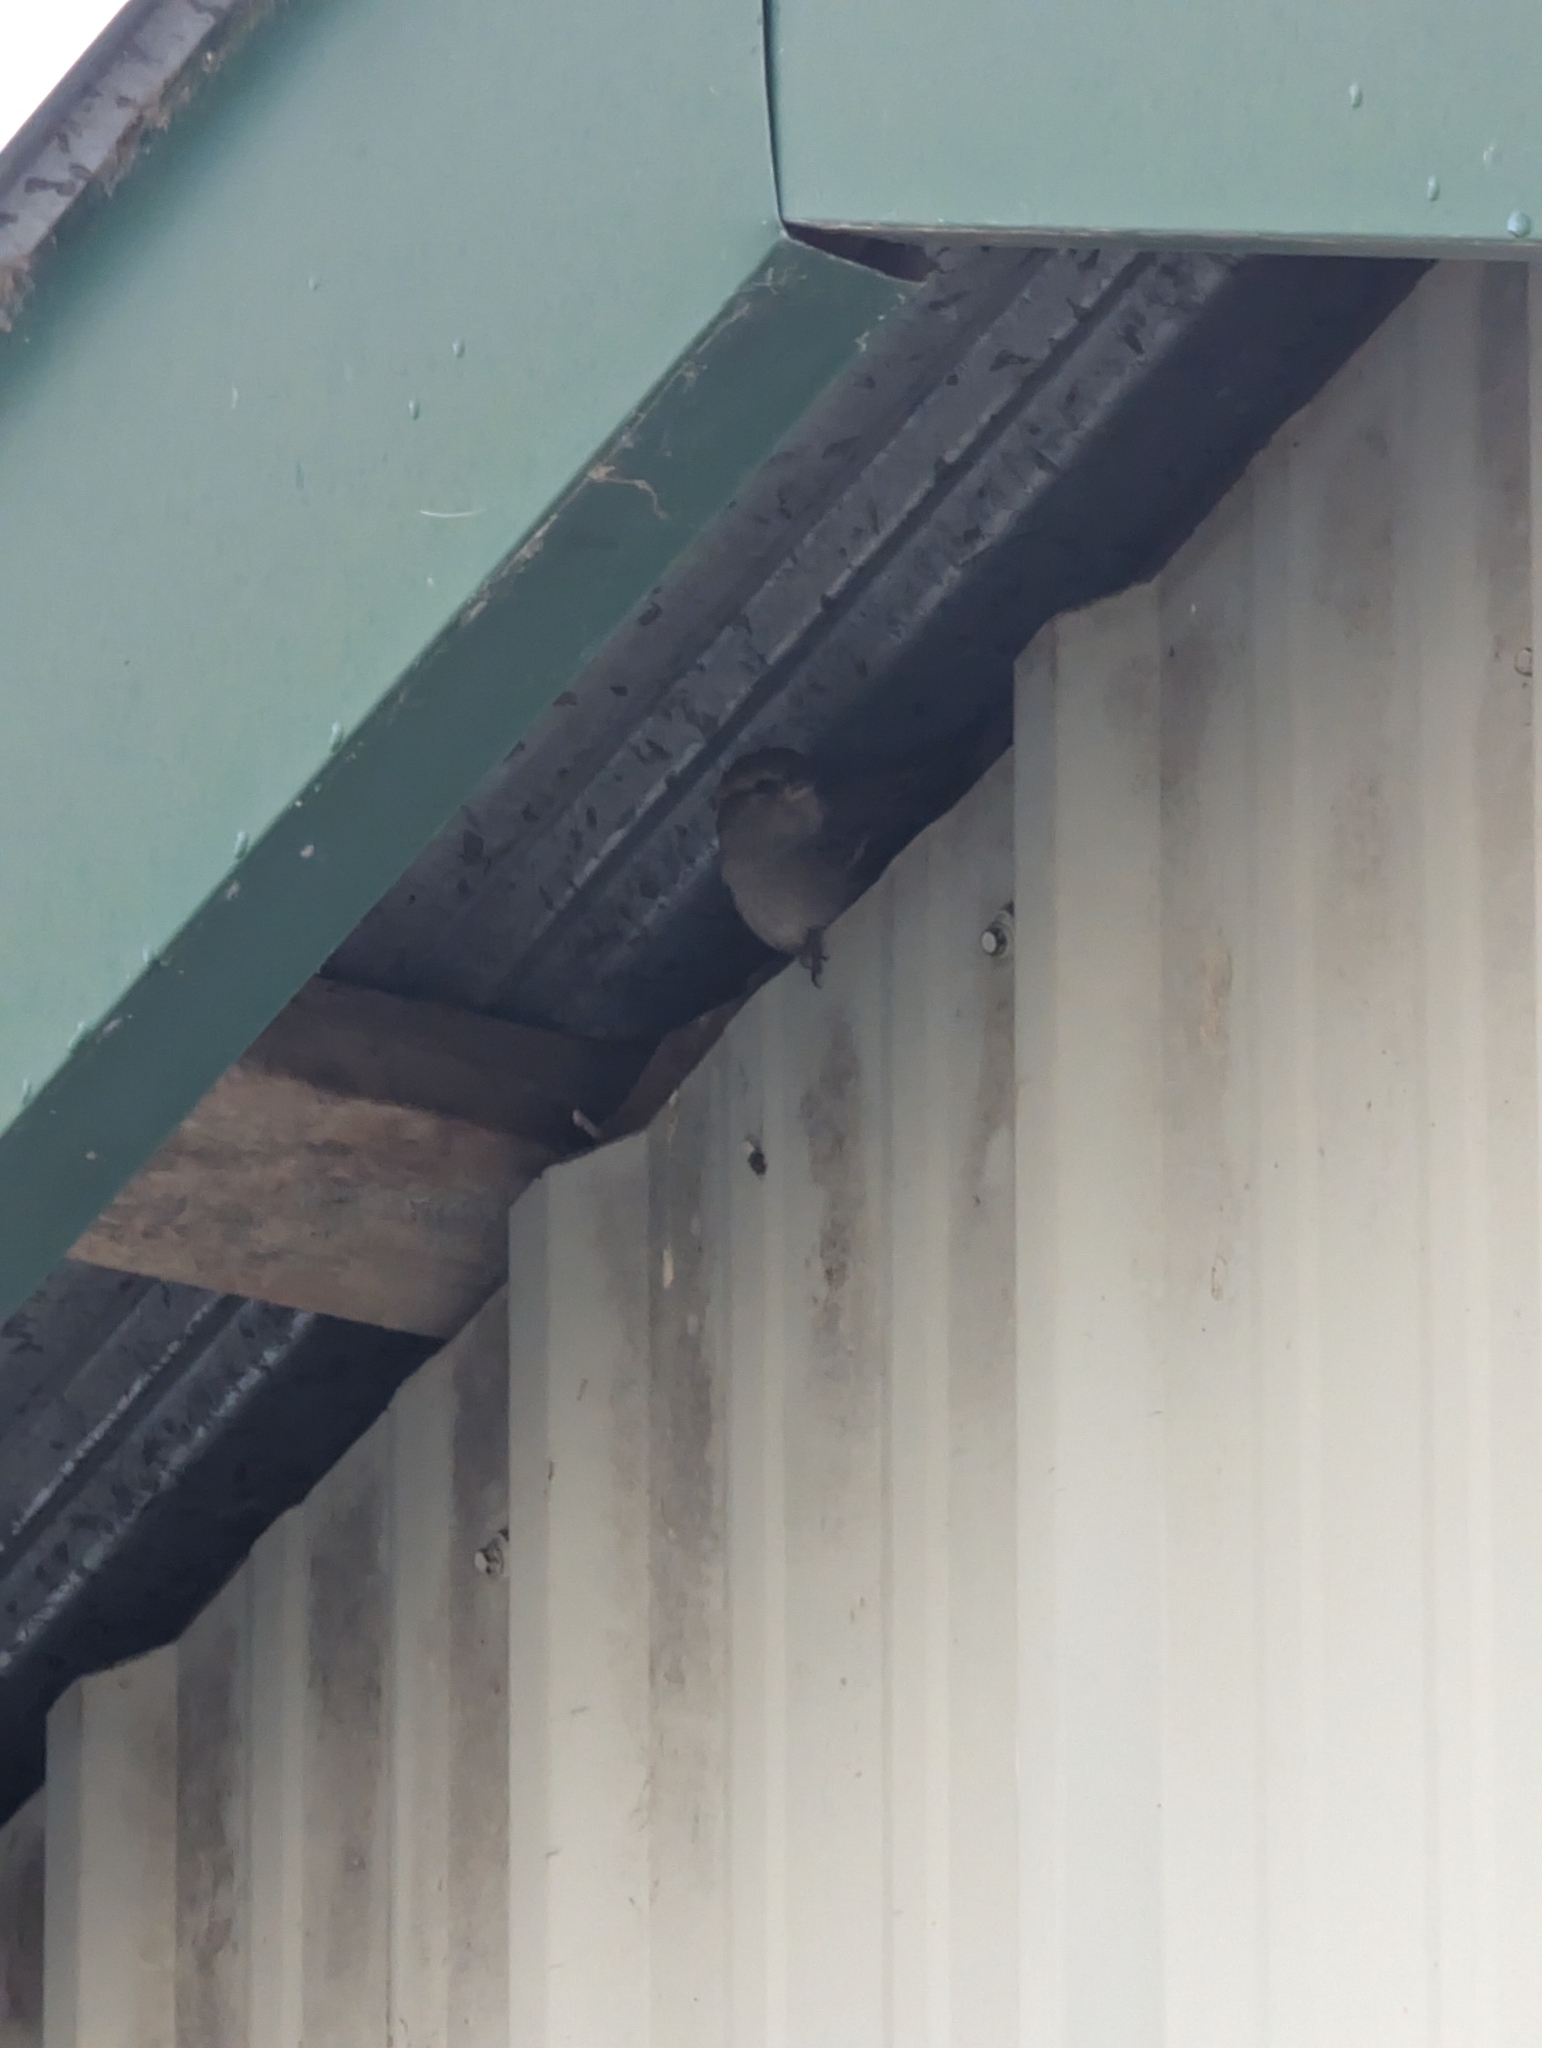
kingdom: Animalia
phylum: Chordata
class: Aves
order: Passeriformes
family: Passeridae
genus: Passer
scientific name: Passer domesticus
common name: House sparrow
